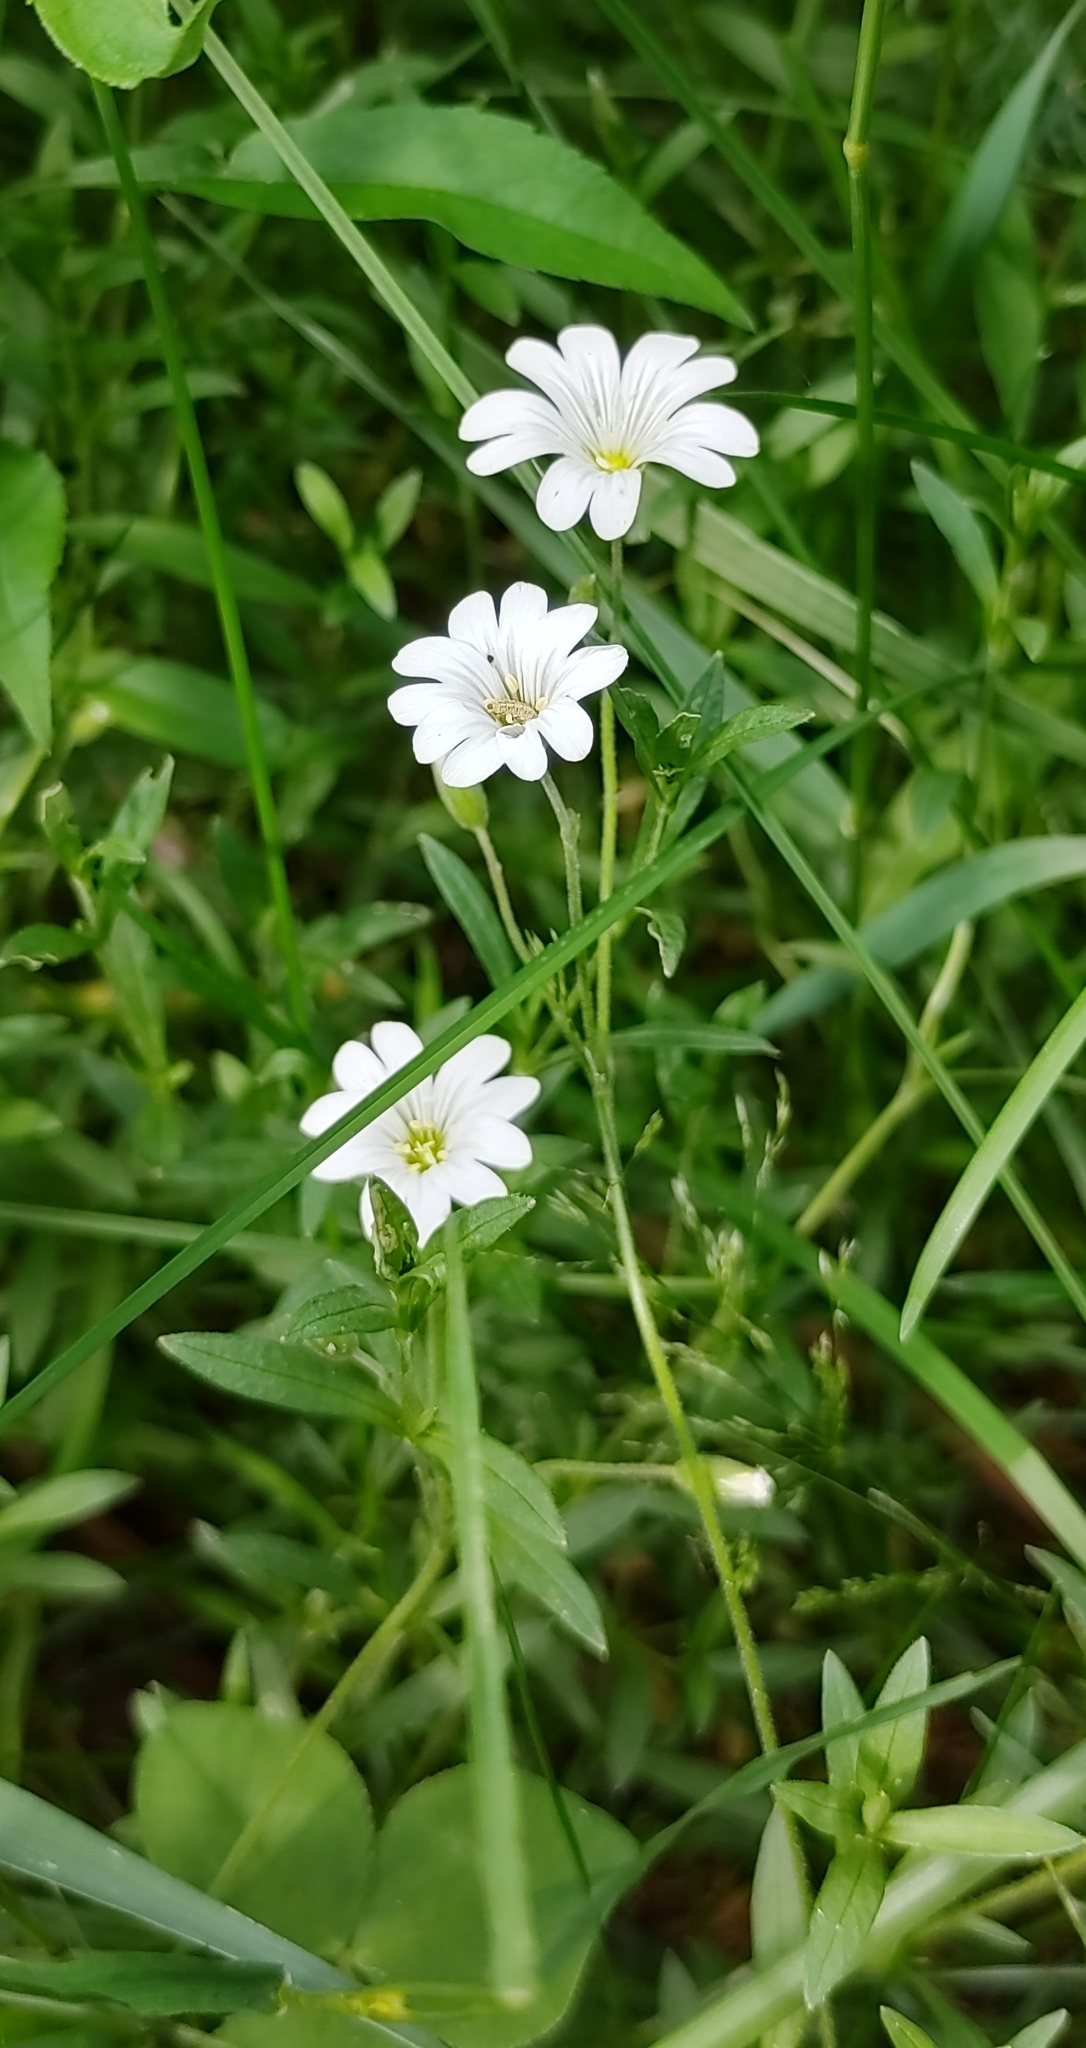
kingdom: Plantae
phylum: Tracheophyta
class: Magnoliopsida
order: Caryophyllales
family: Caryophyllaceae
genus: Cerastium
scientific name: Cerastium arvense
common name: Field mouse-ear
